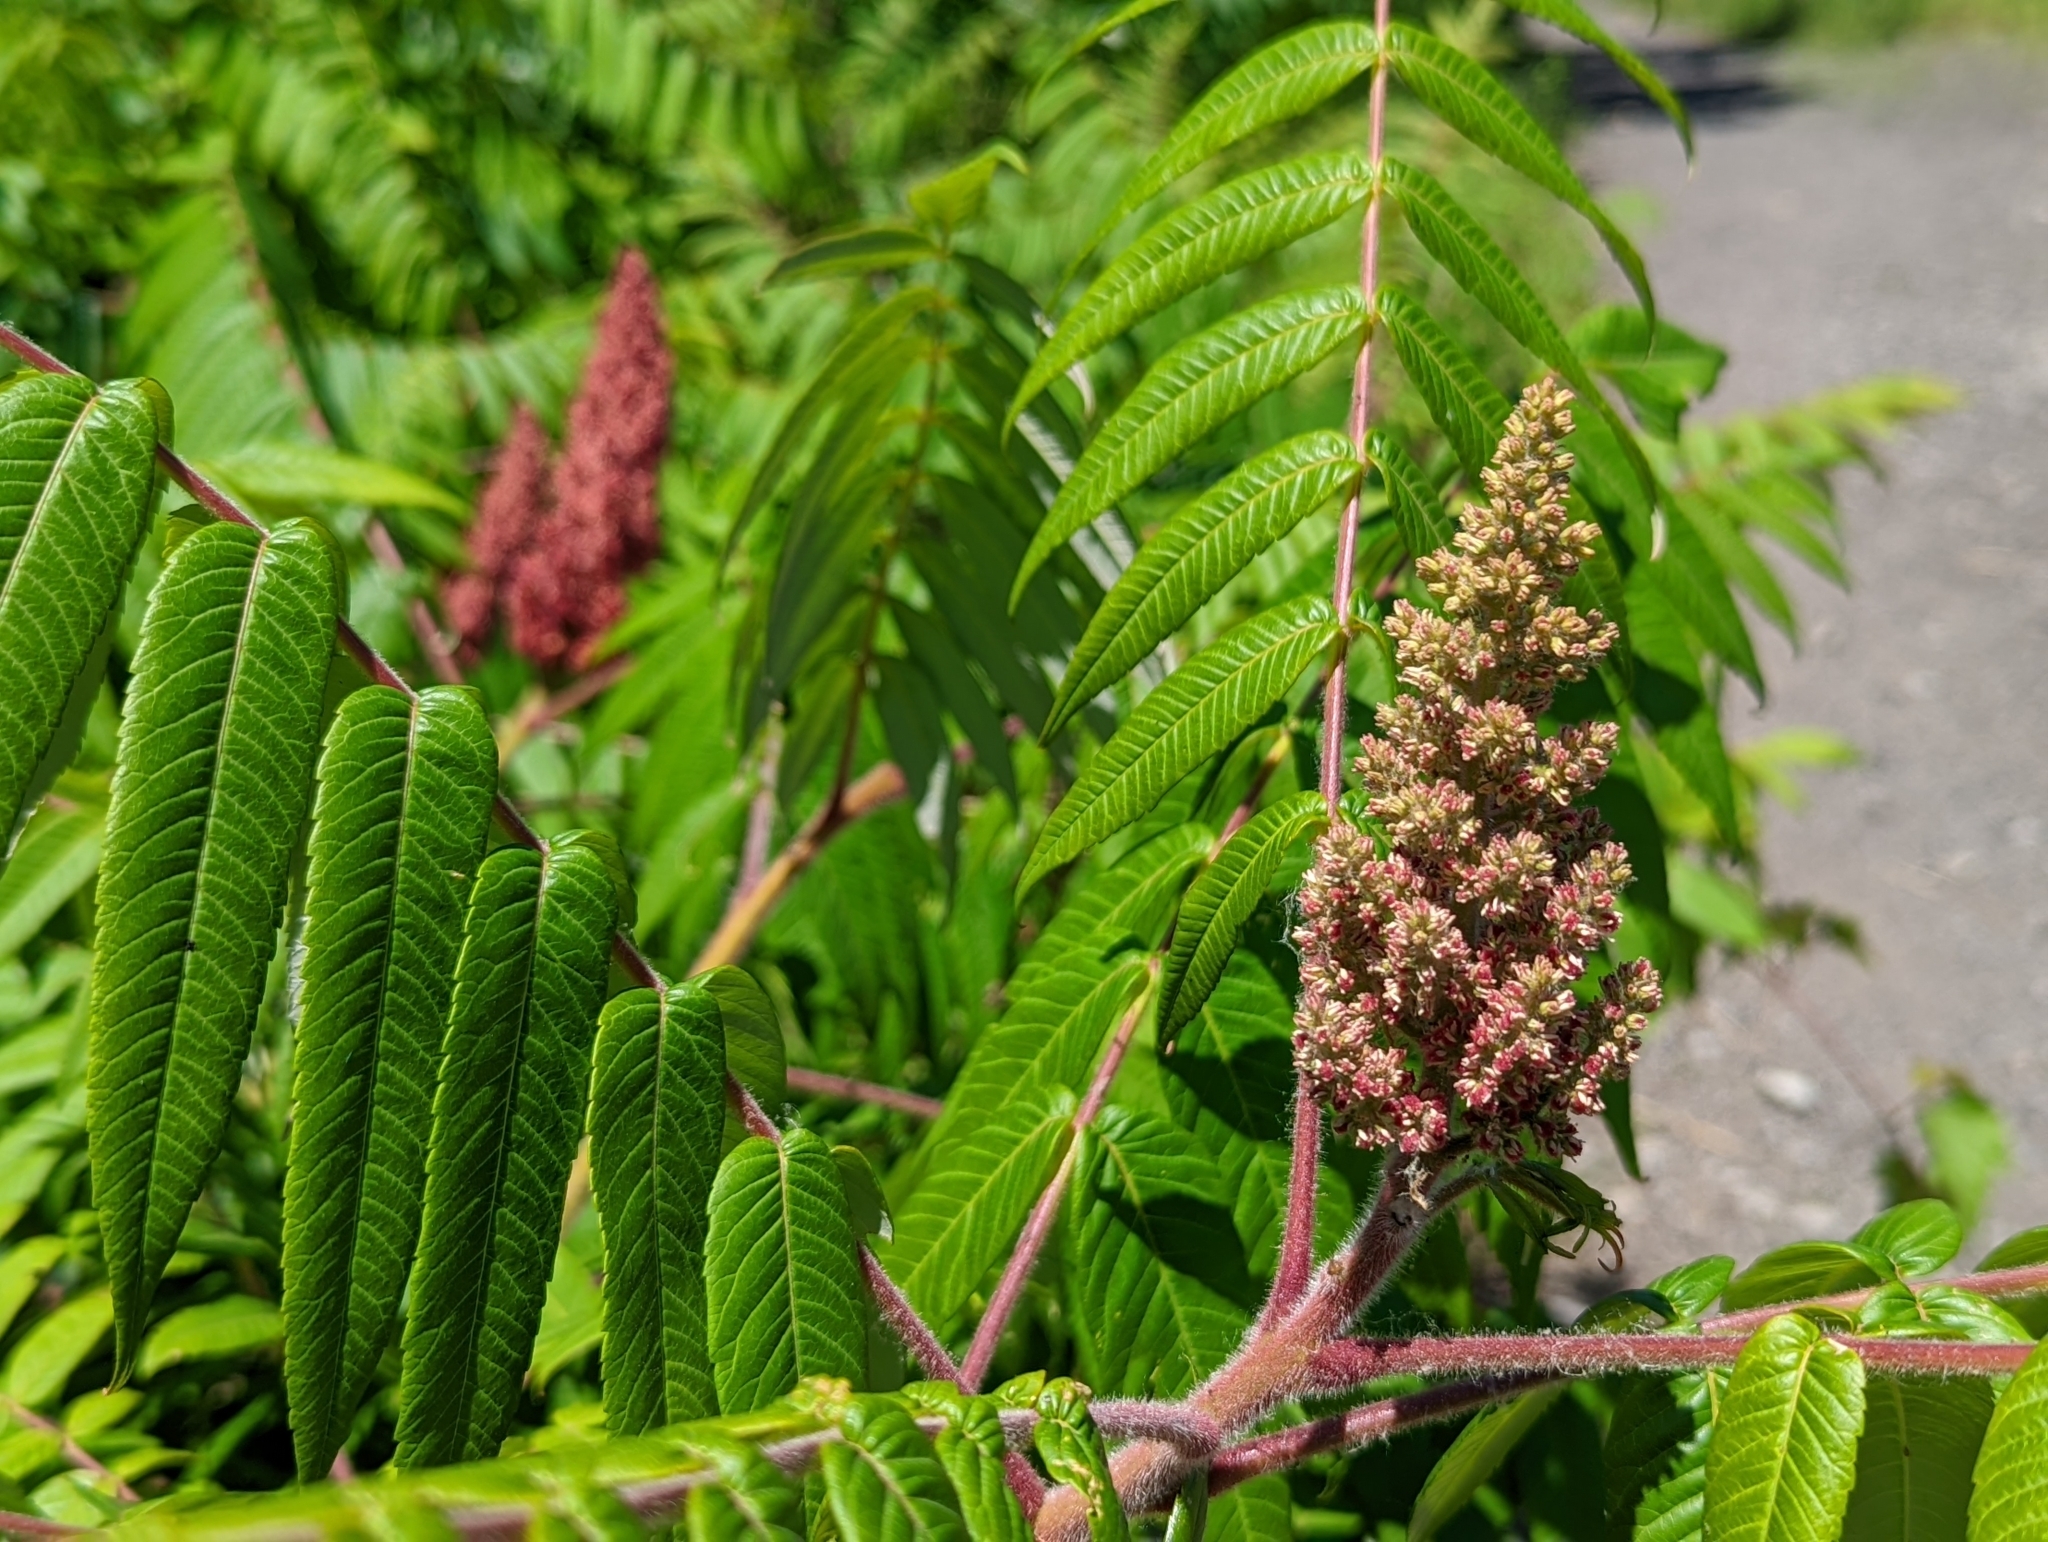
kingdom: Plantae
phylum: Tracheophyta
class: Magnoliopsida
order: Sapindales
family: Anacardiaceae
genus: Rhus
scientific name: Rhus typhina
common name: Staghorn sumac
